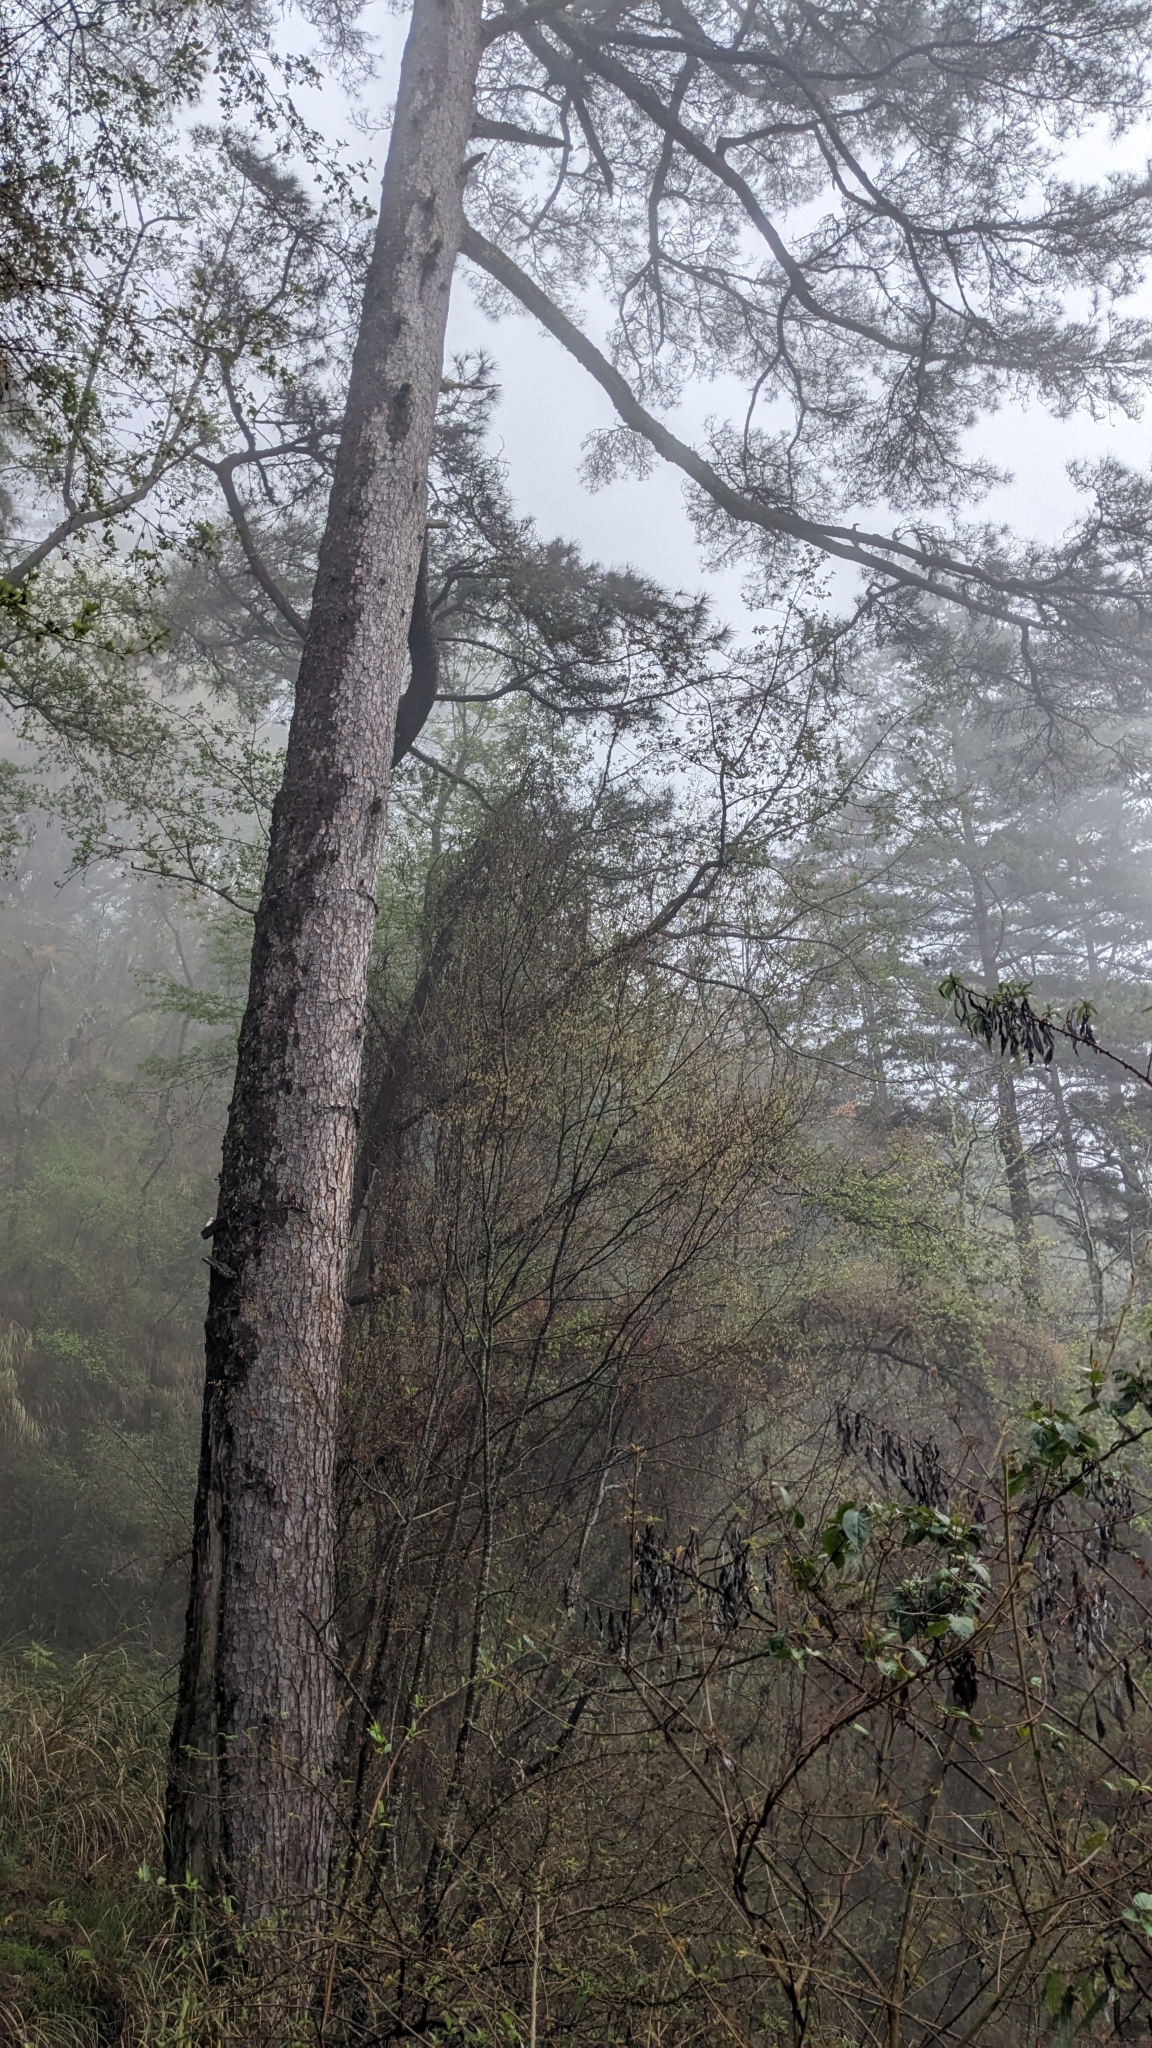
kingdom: Plantae
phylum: Tracheophyta
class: Pinopsida
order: Pinales
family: Pinaceae
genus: Pinus
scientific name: Pinus taiwanensis
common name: Formosa pine
